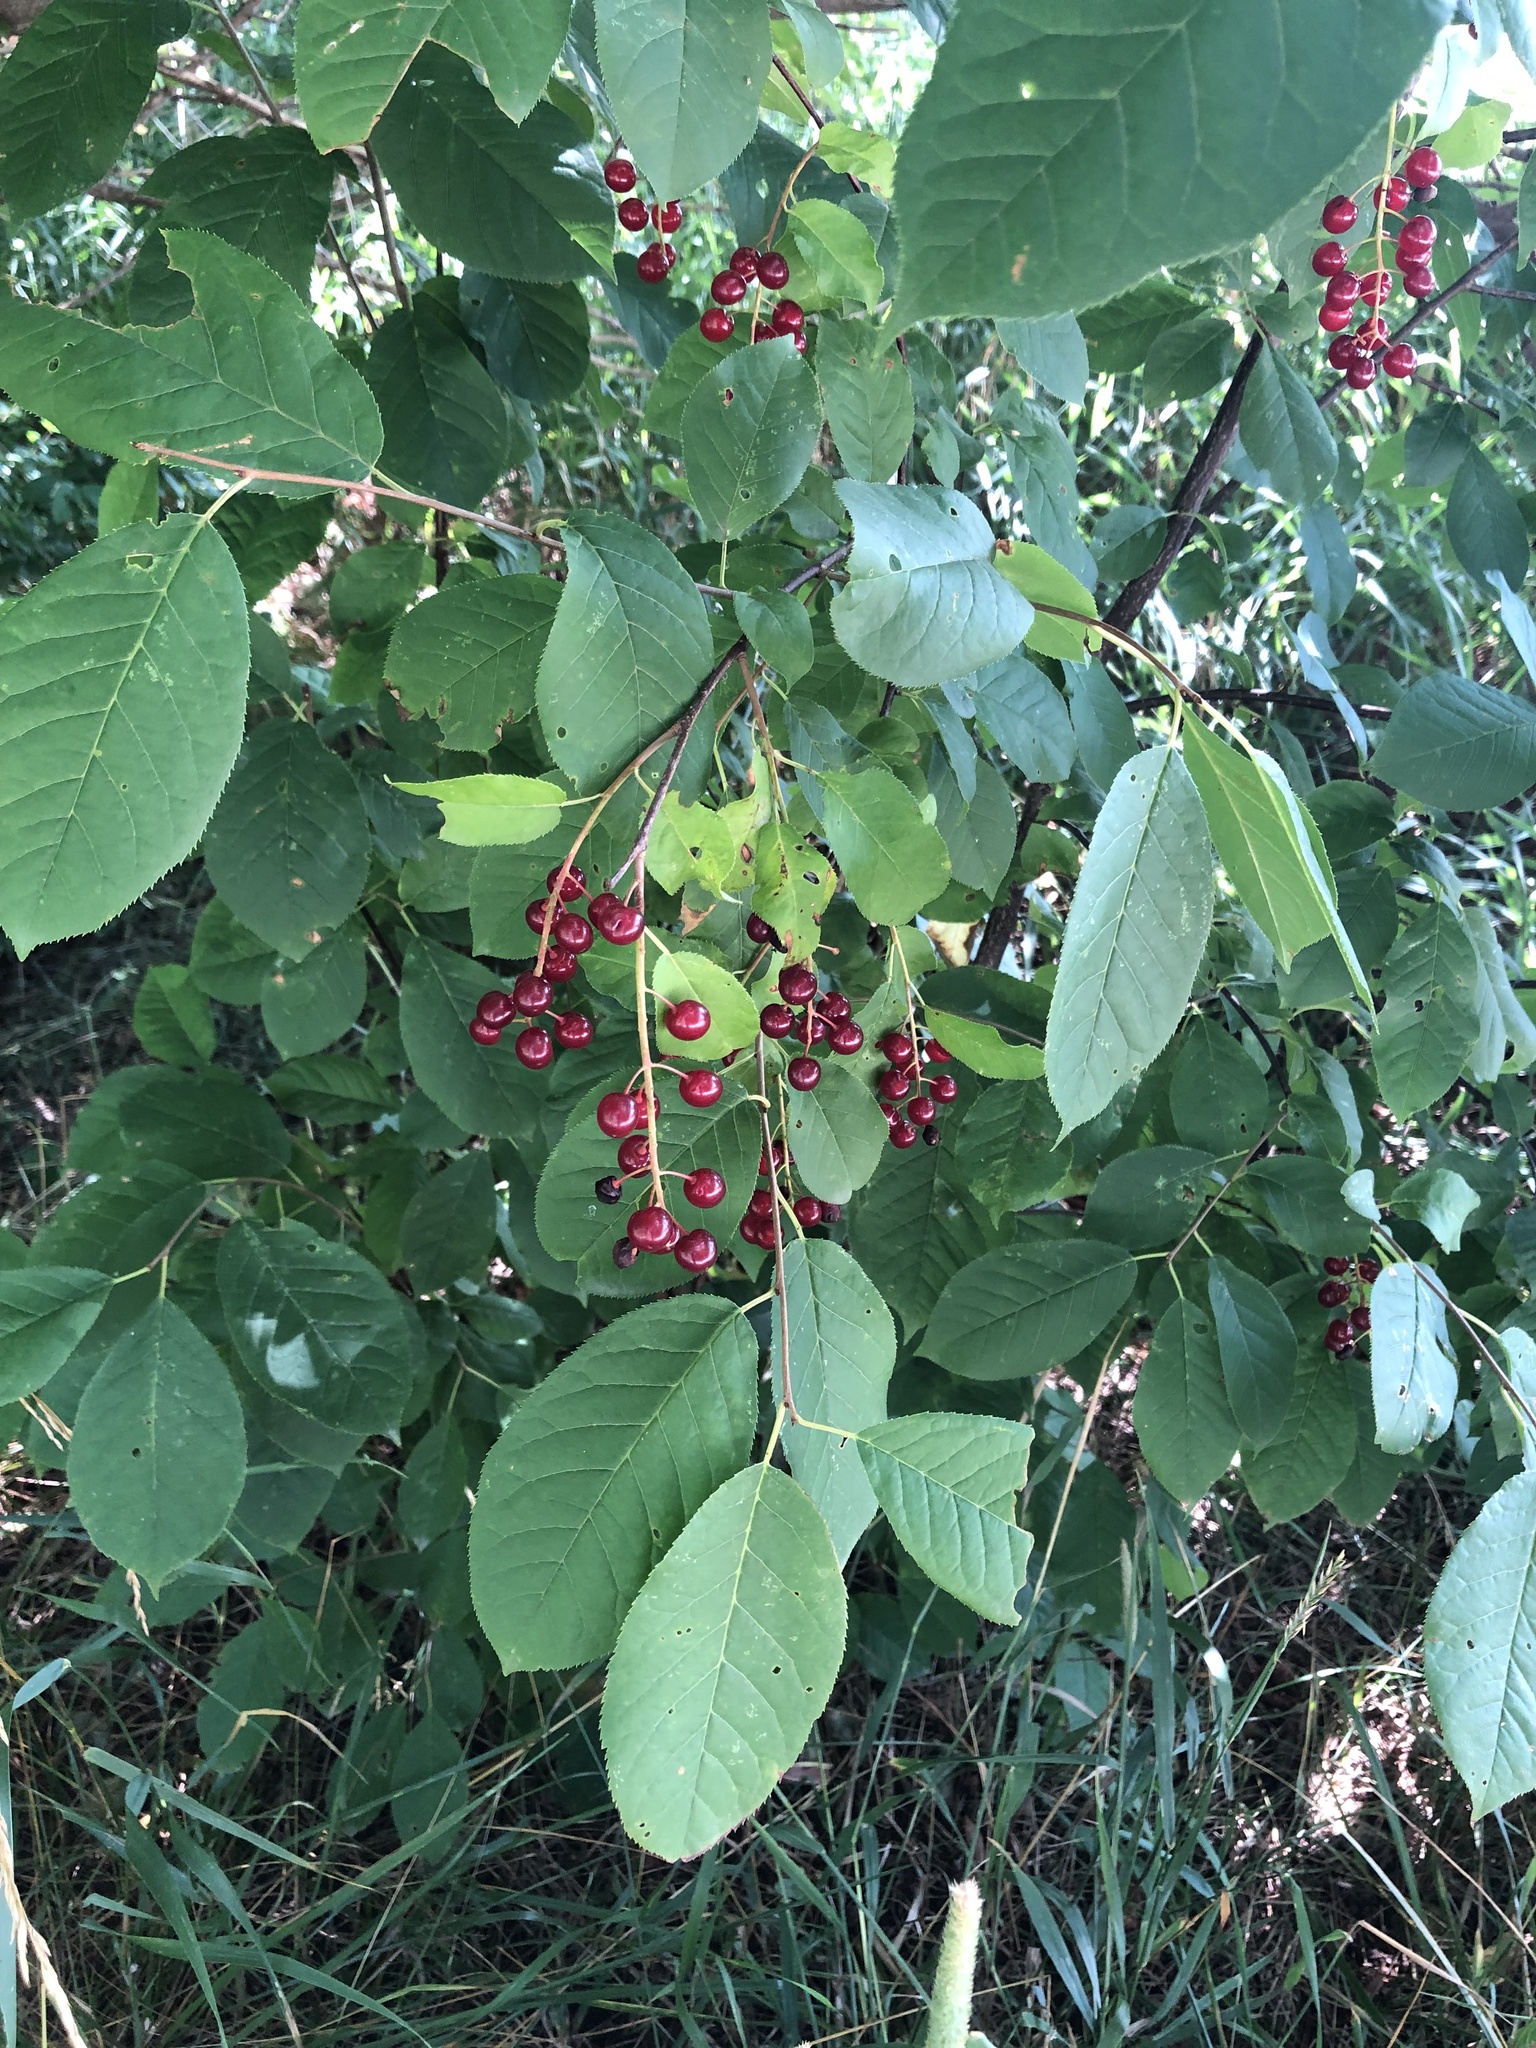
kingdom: Plantae
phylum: Tracheophyta
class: Magnoliopsida
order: Rosales
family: Rosaceae
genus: Prunus
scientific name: Prunus virginiana
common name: Chokecherry
